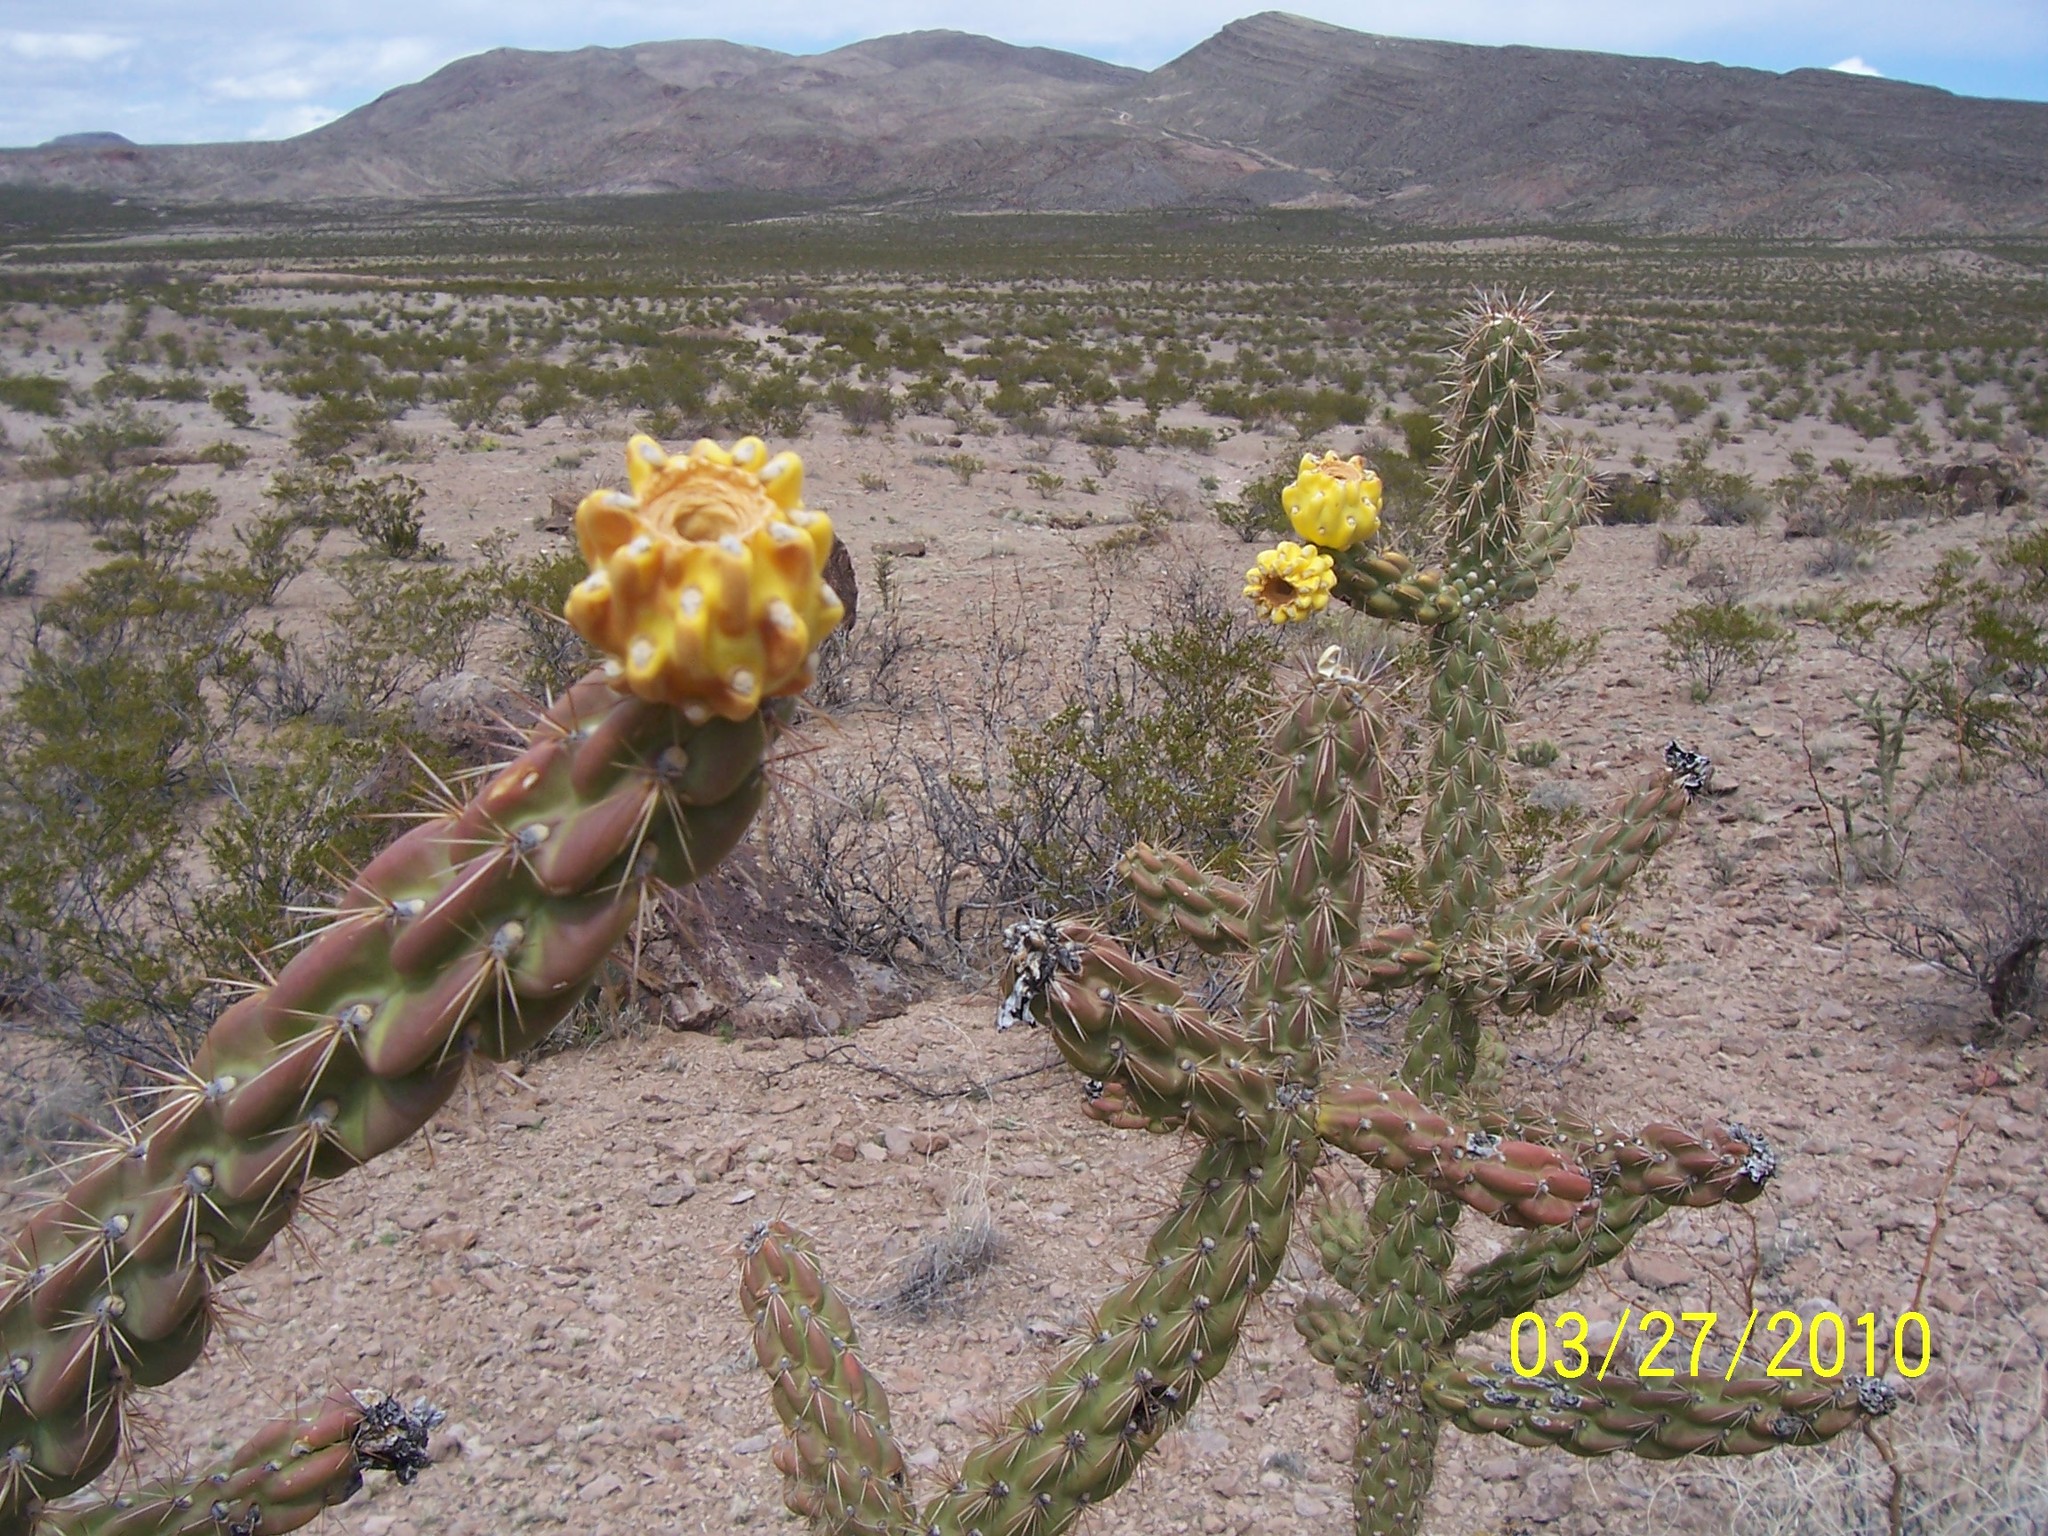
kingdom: Plantae
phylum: Tracheophyta
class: Magnoliopsida
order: Caryophyllales
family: Cactaceae
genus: Cylindropuntia
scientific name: Cylindropuntia imbricata
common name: Candelabrum cactus
